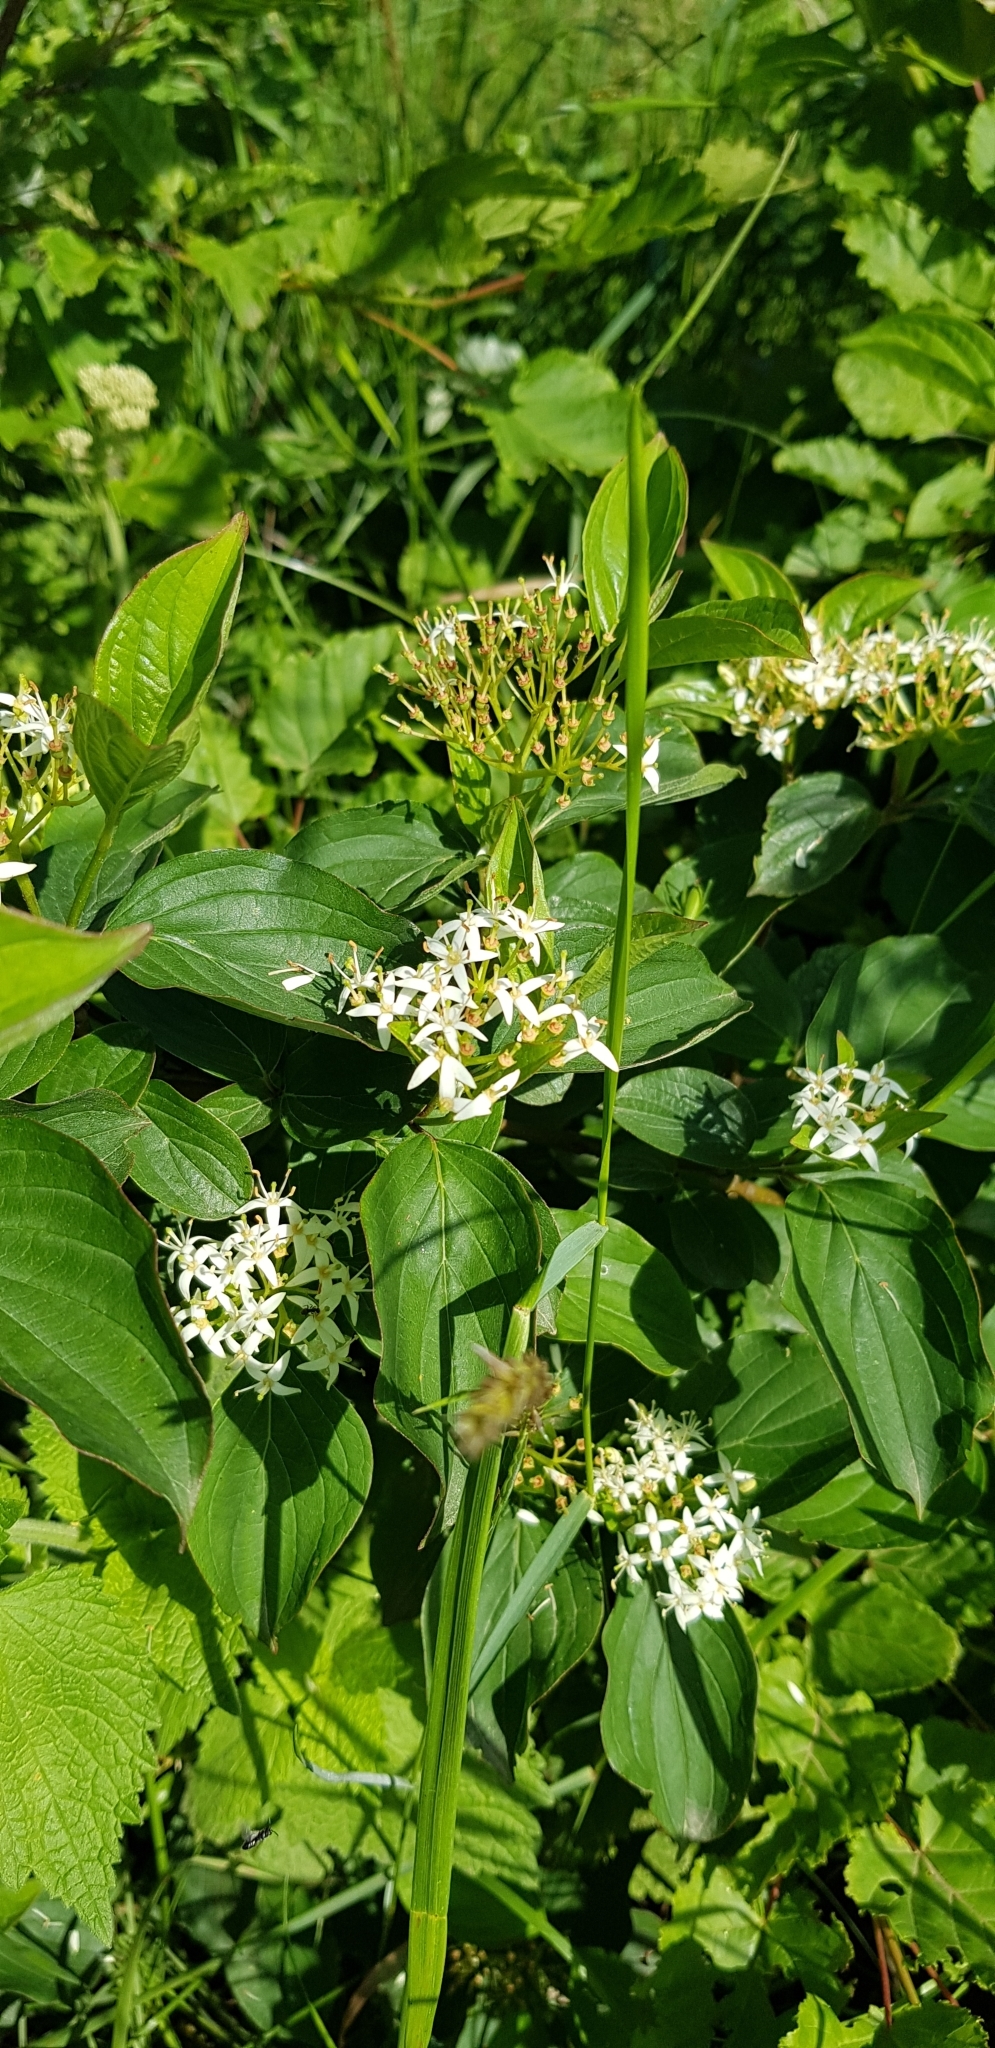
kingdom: Plantae
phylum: Tracheophyta
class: Magnoliopsida
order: Cornales
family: Cornaceae
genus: Cornus
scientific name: Cornus sanguinea
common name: Dogwood
